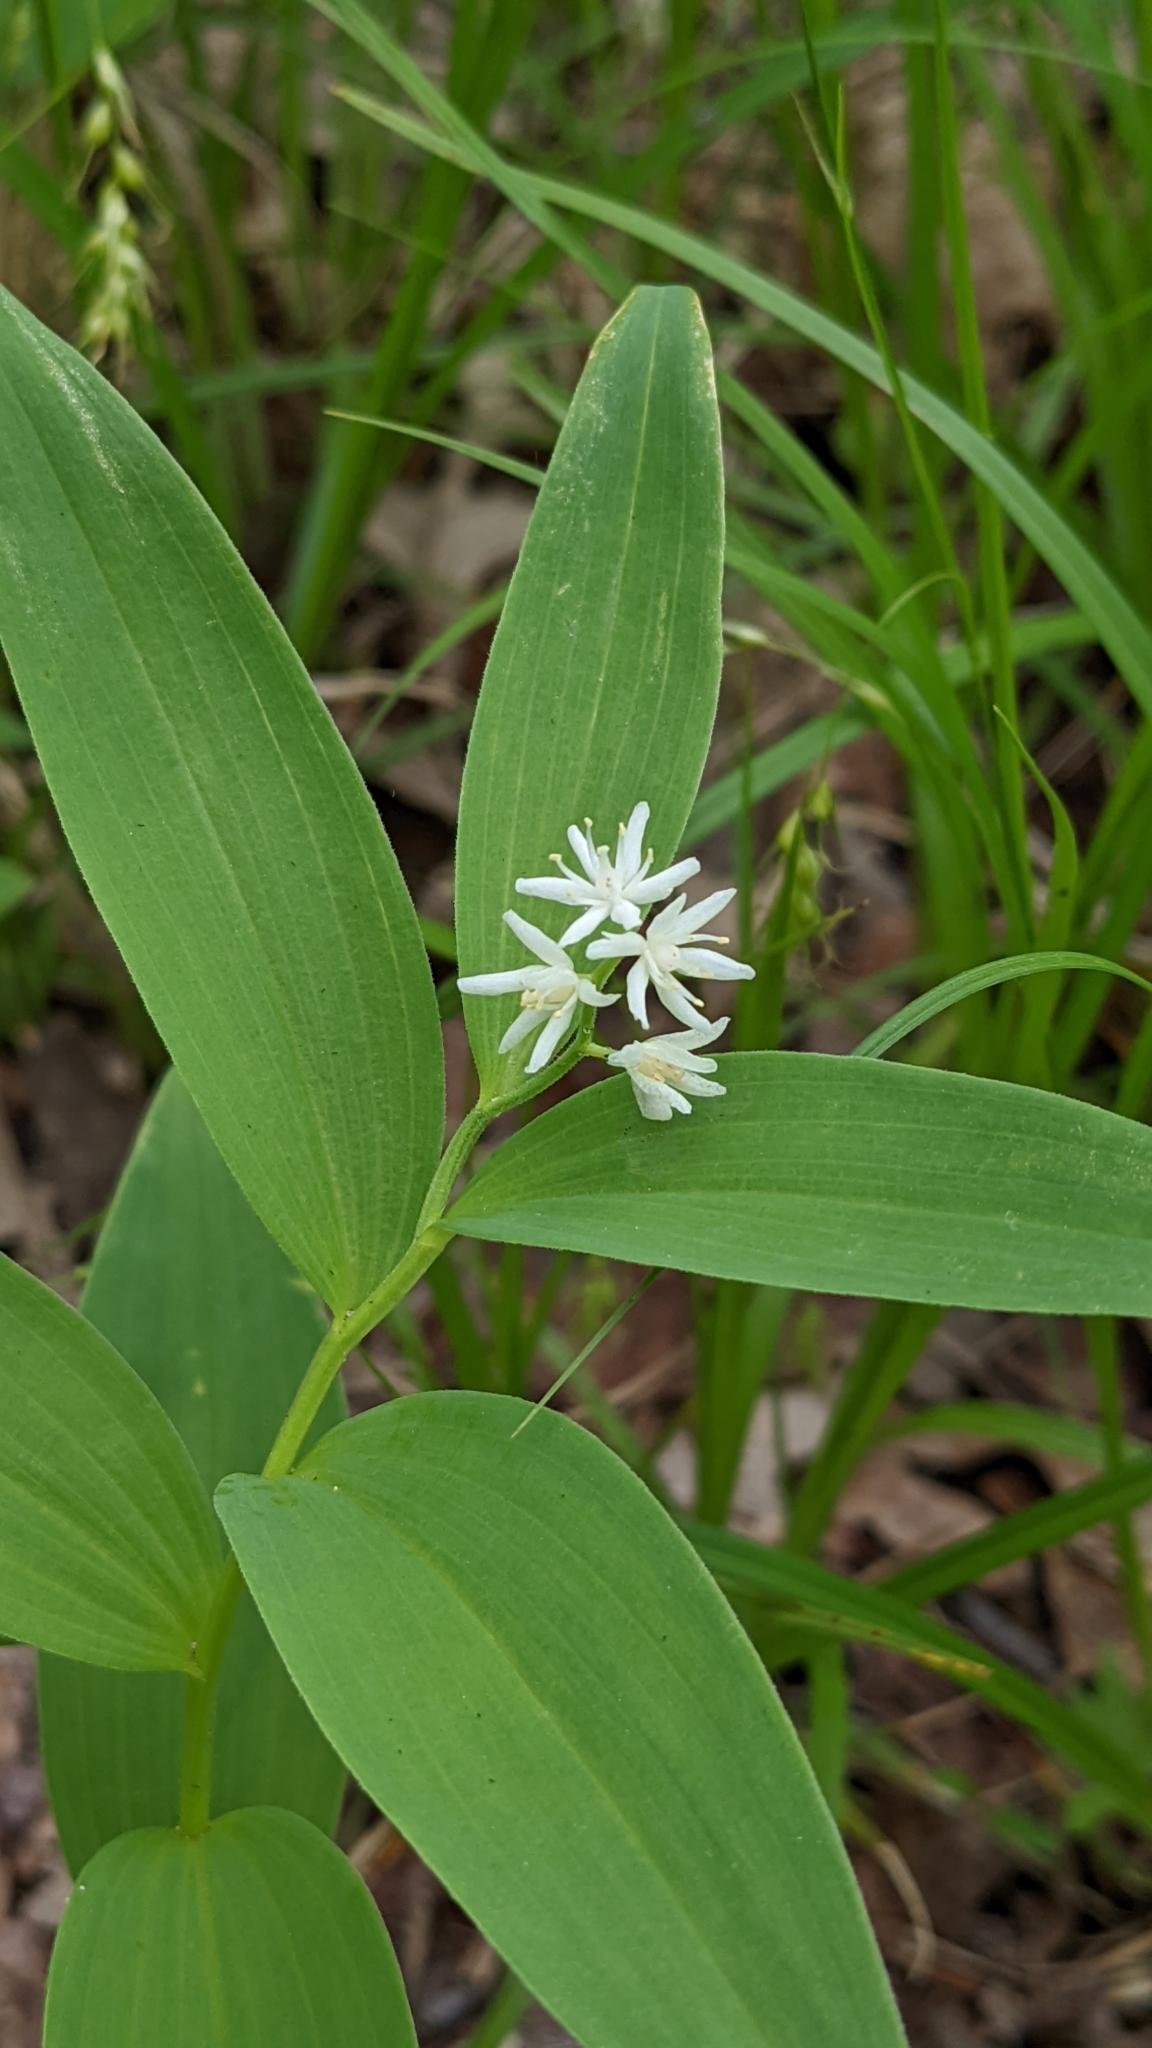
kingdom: Plantae
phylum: Tracheophyta
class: Liliopsida
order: Asparagales
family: Asparagaceae
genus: Maianthemum
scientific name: Maianthemum stellatum
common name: Little false solomon's seal
